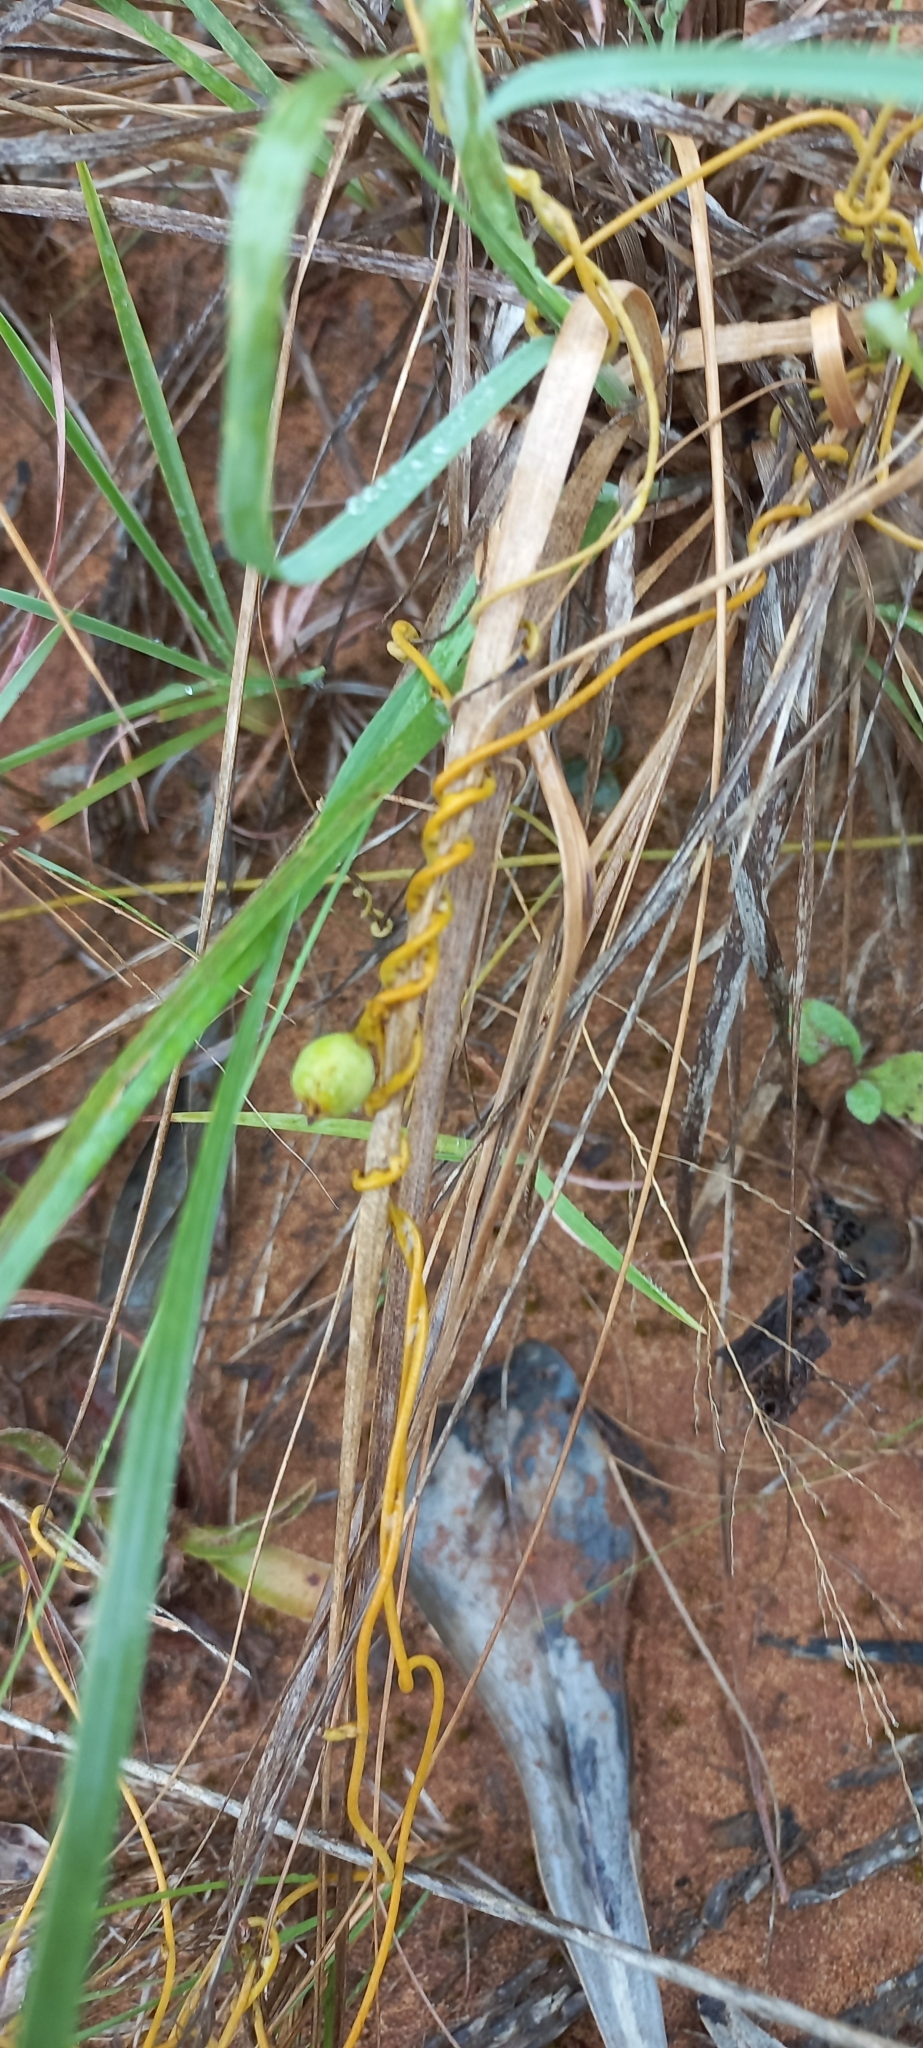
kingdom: Plantae
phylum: Tracheophyta
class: Magnoliopsida
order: Laurales
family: Lauraceae
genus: Cassytha
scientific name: Cassytha pondoensis
